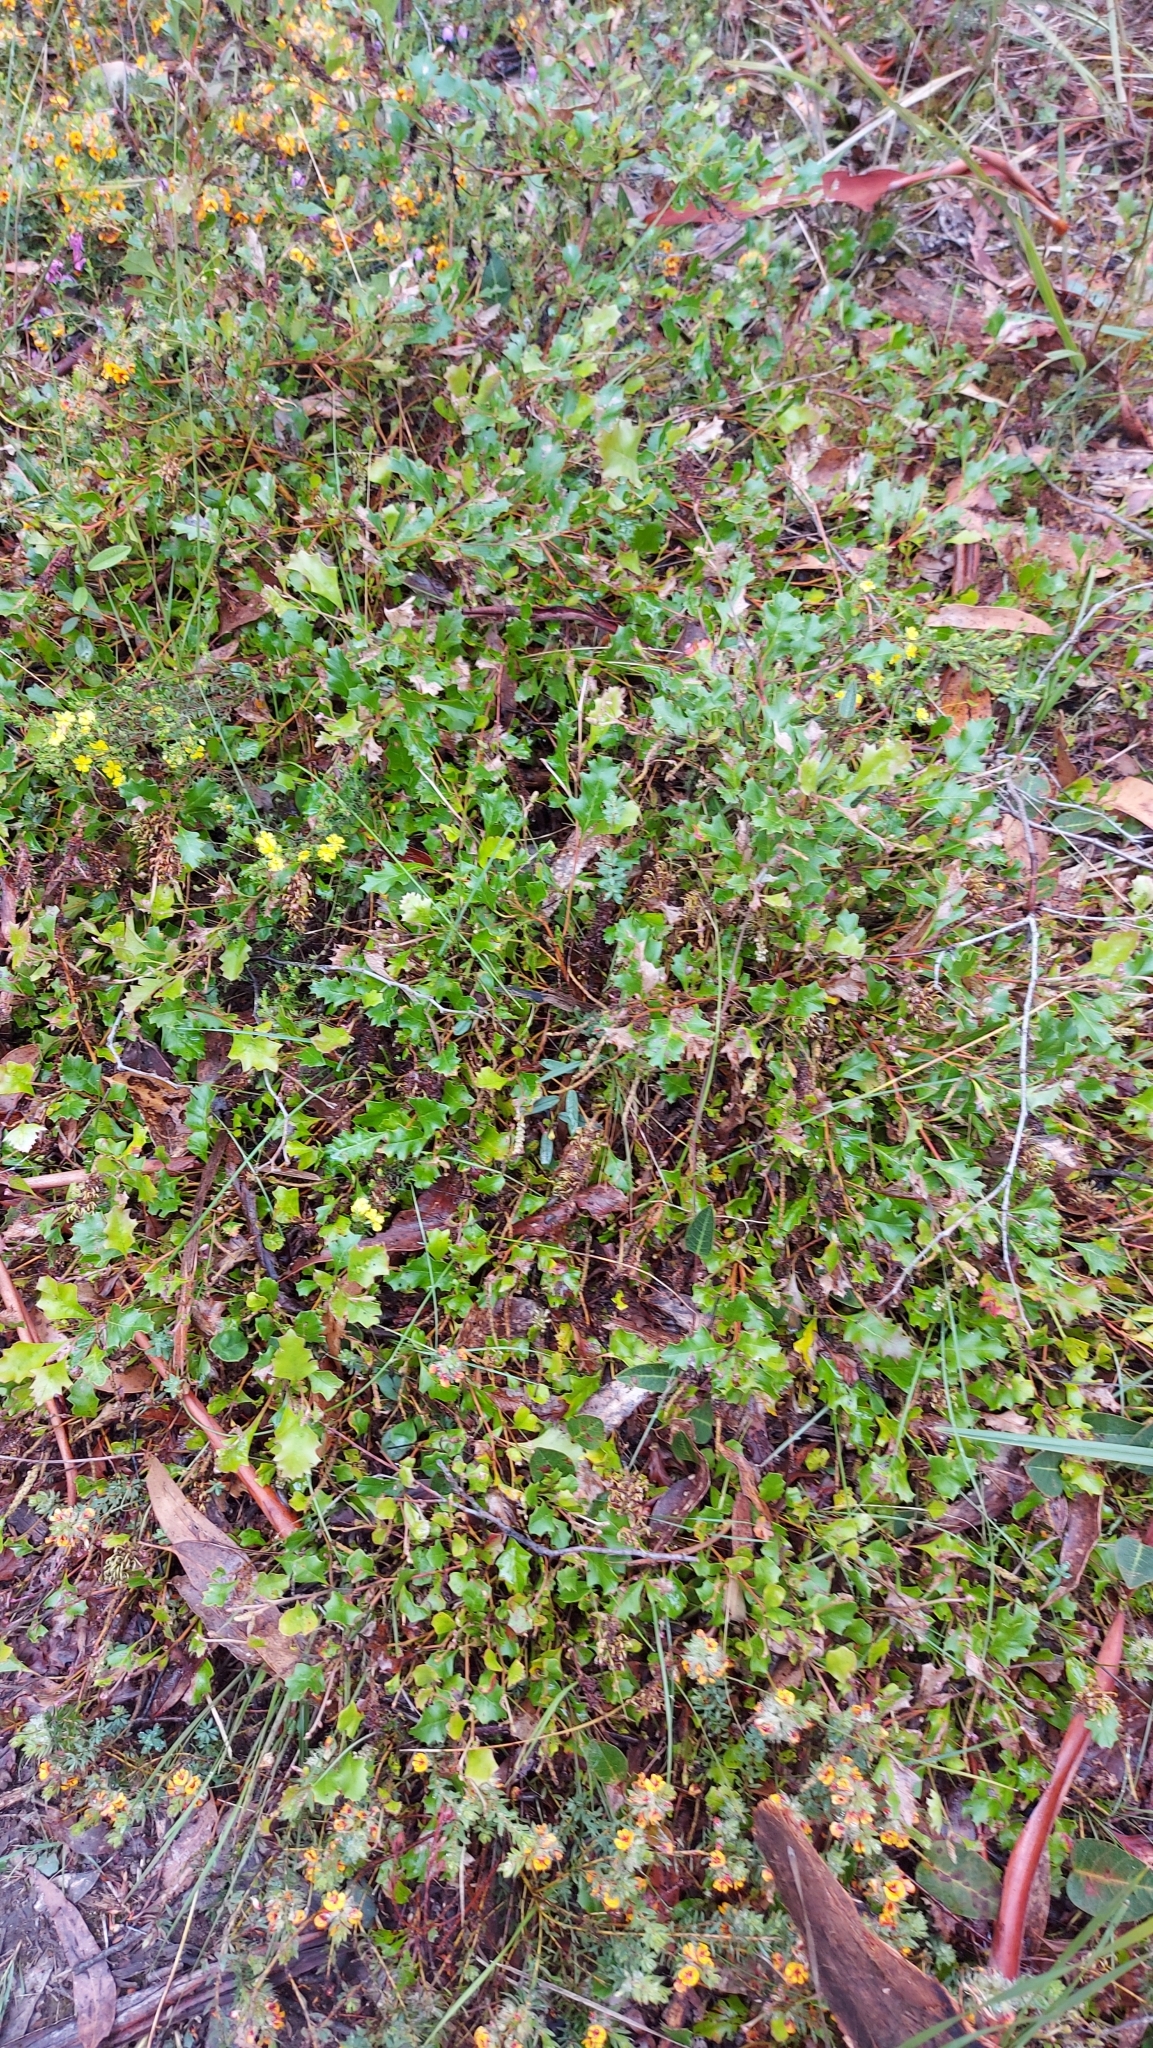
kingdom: Plantae
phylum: Tracheophyta
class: Magnoliopsida
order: Proteales
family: Proteaceae
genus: Grevillea
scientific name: Grevillea bedggoodiana
